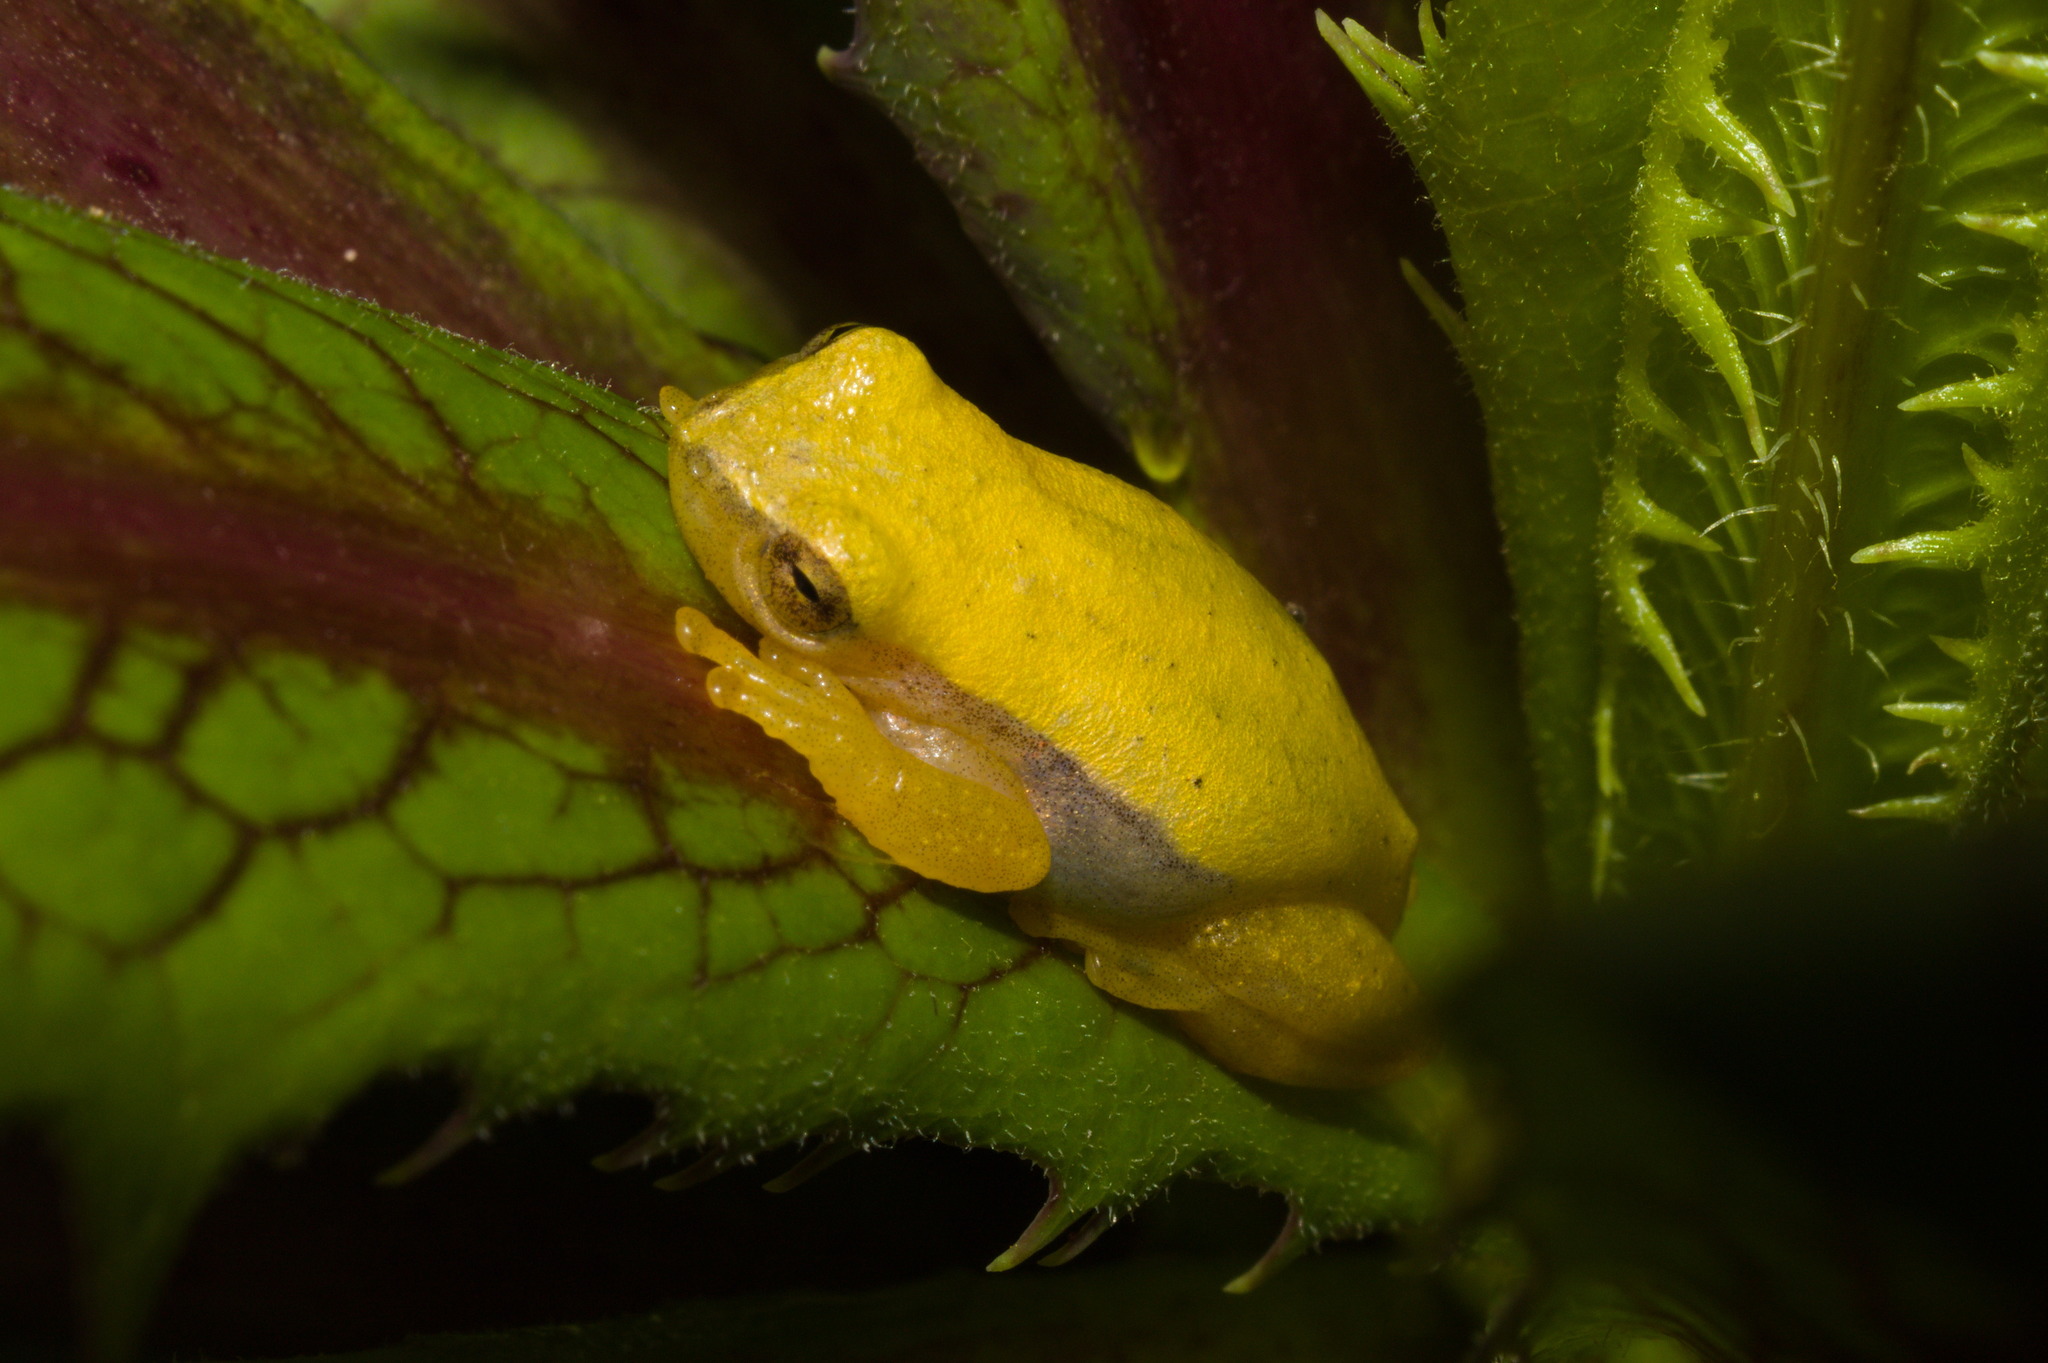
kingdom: Animalia
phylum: Chordata
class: Amphibia
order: Anura
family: Hylidae
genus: Dendropsophus
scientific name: Dendropsophus sanborni
